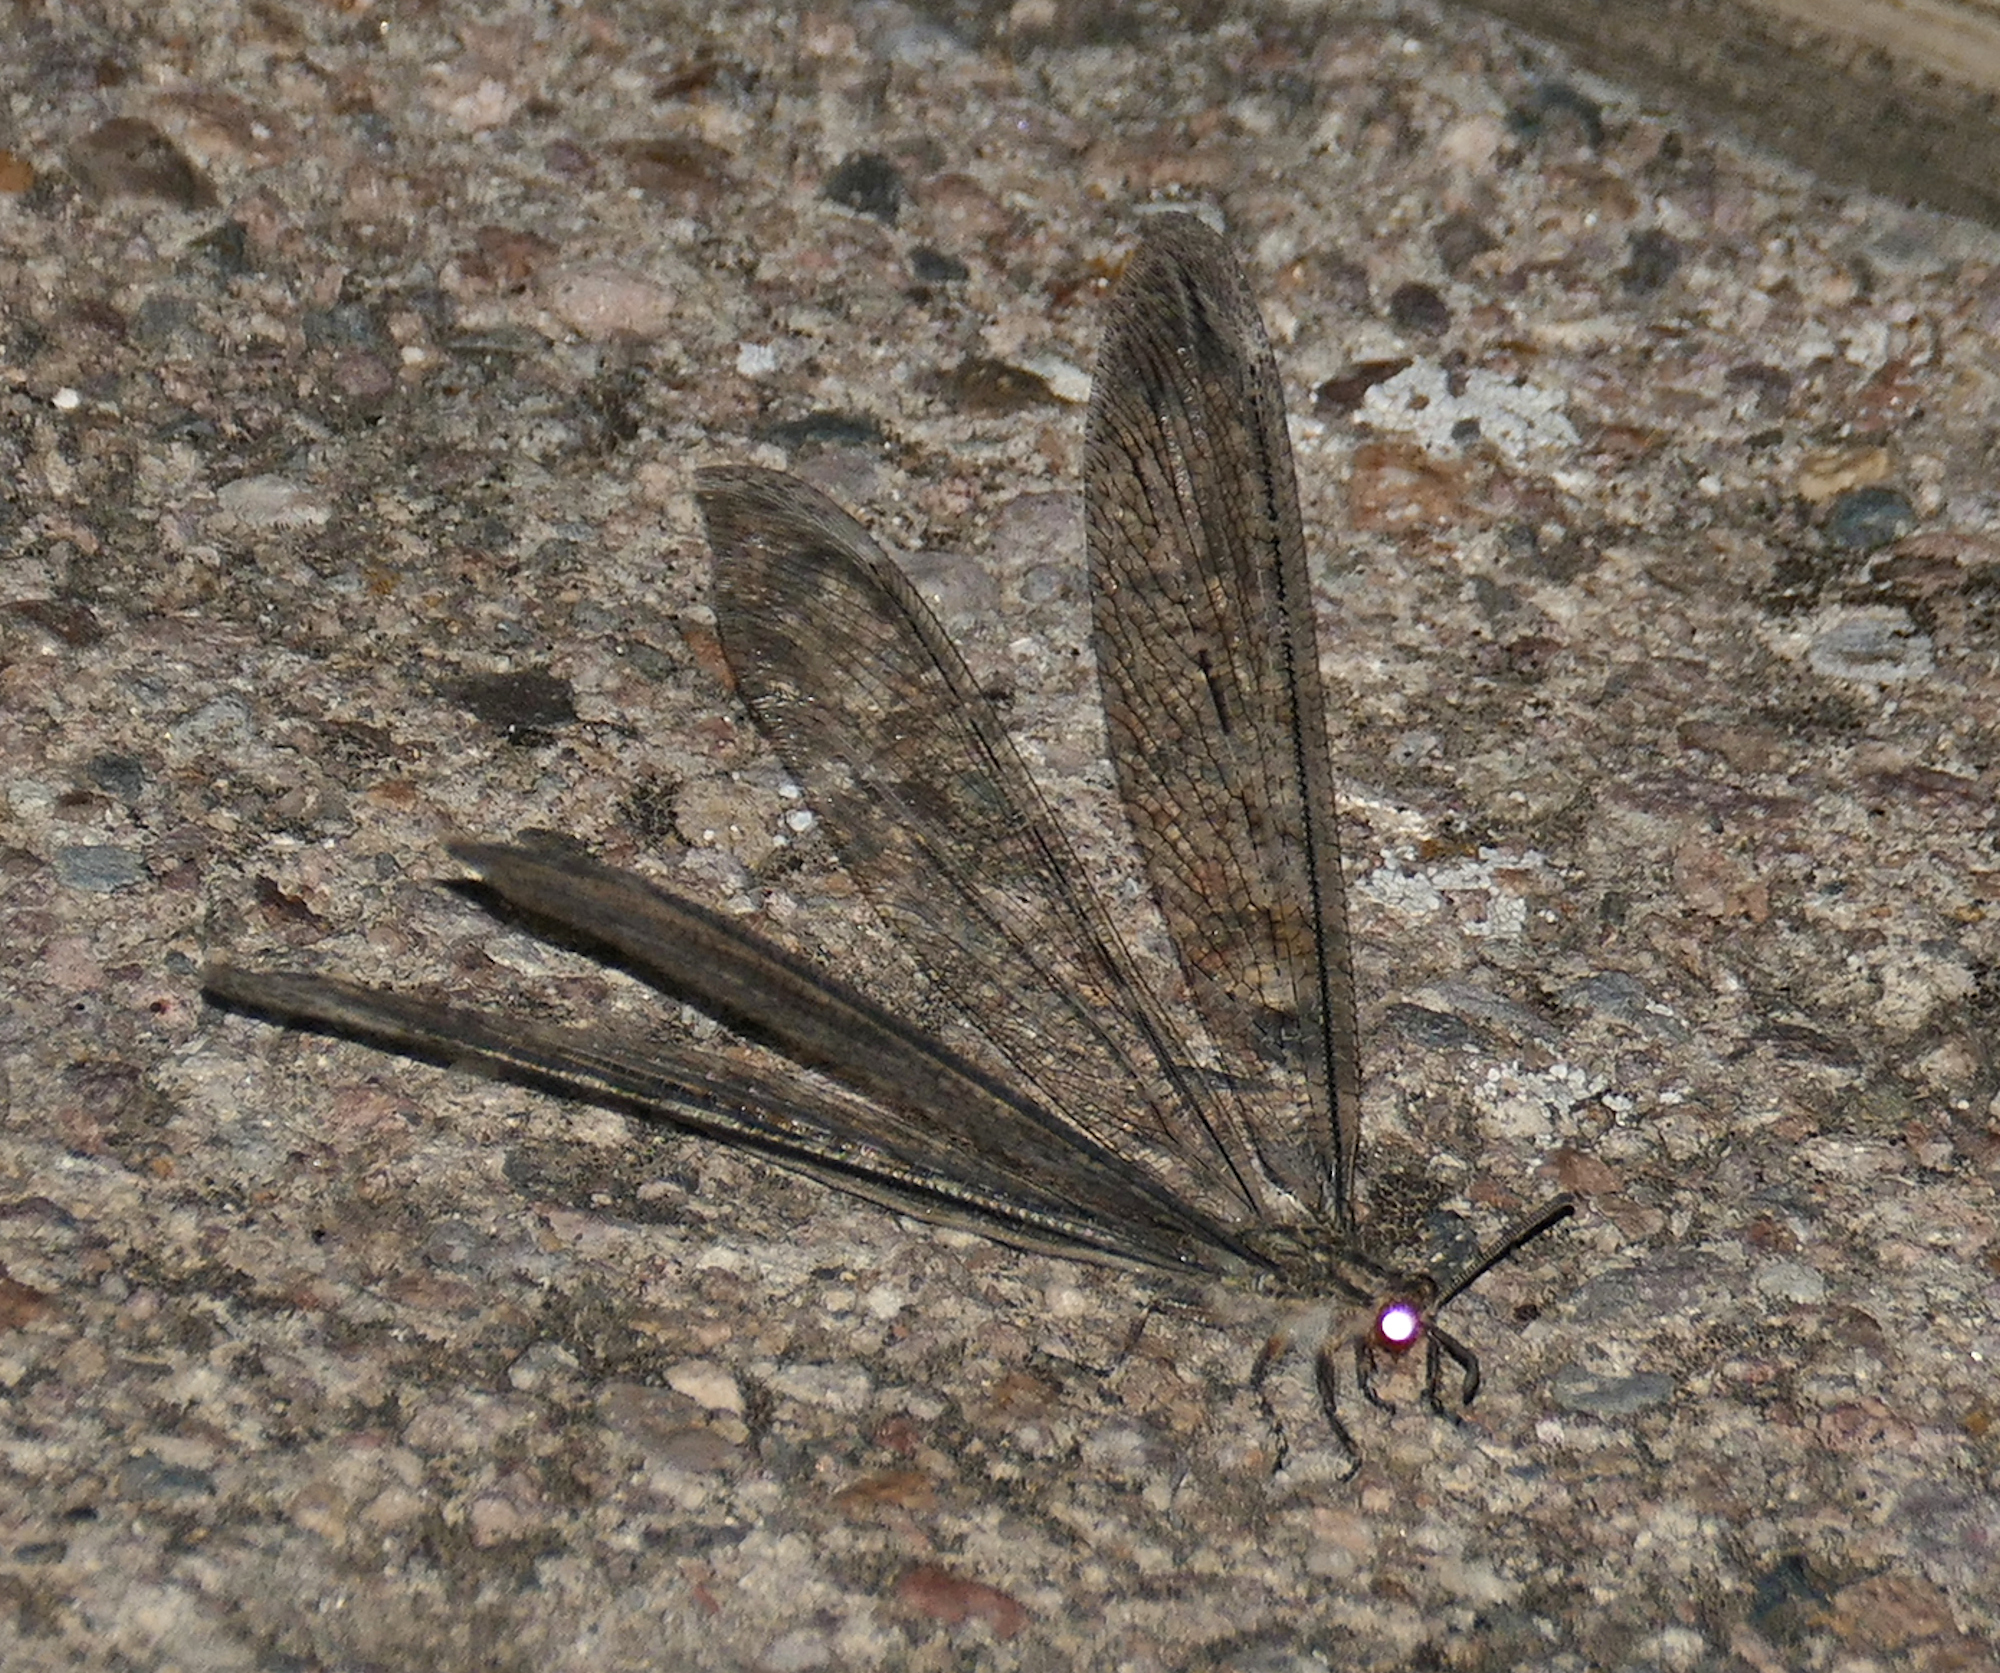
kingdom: Animalia
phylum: Arthropoda
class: Insecta
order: Neuroptera
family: Myrmeleontidae
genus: Vella
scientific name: Vella fallax
